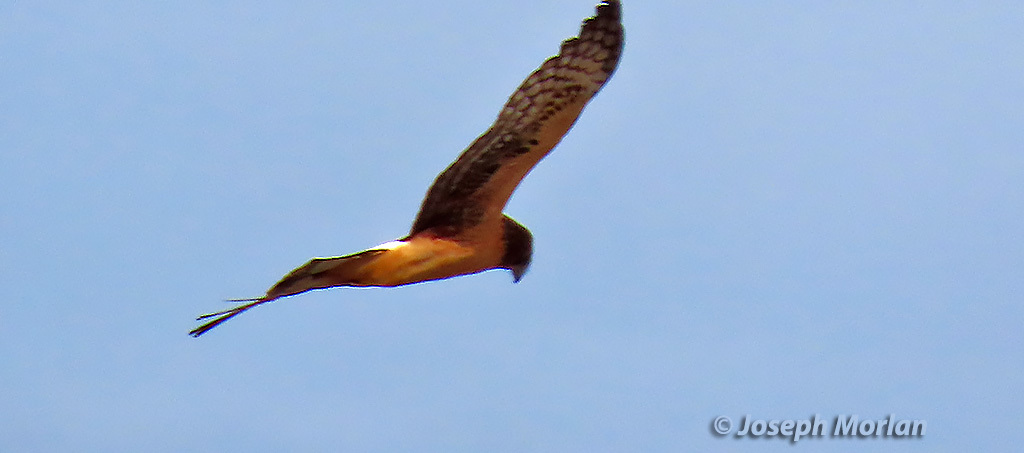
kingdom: Animalia
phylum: Chordata
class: Aves
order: Accipitriformes
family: Accipitridae
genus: Circus
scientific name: Circus cyaneus
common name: Hen harrier
